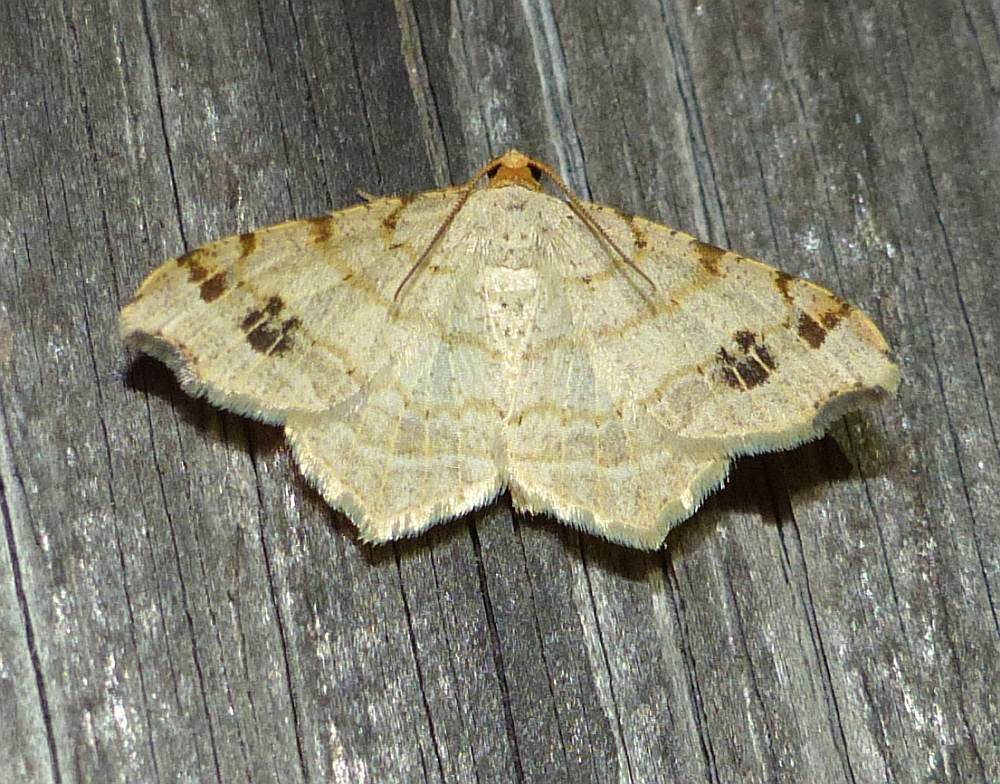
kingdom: Animalia
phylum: Arthropoda
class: Insecta
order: Lepidoptera
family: Geometridae
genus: Macaria
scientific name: Macaria aemulataria
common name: Common angle
